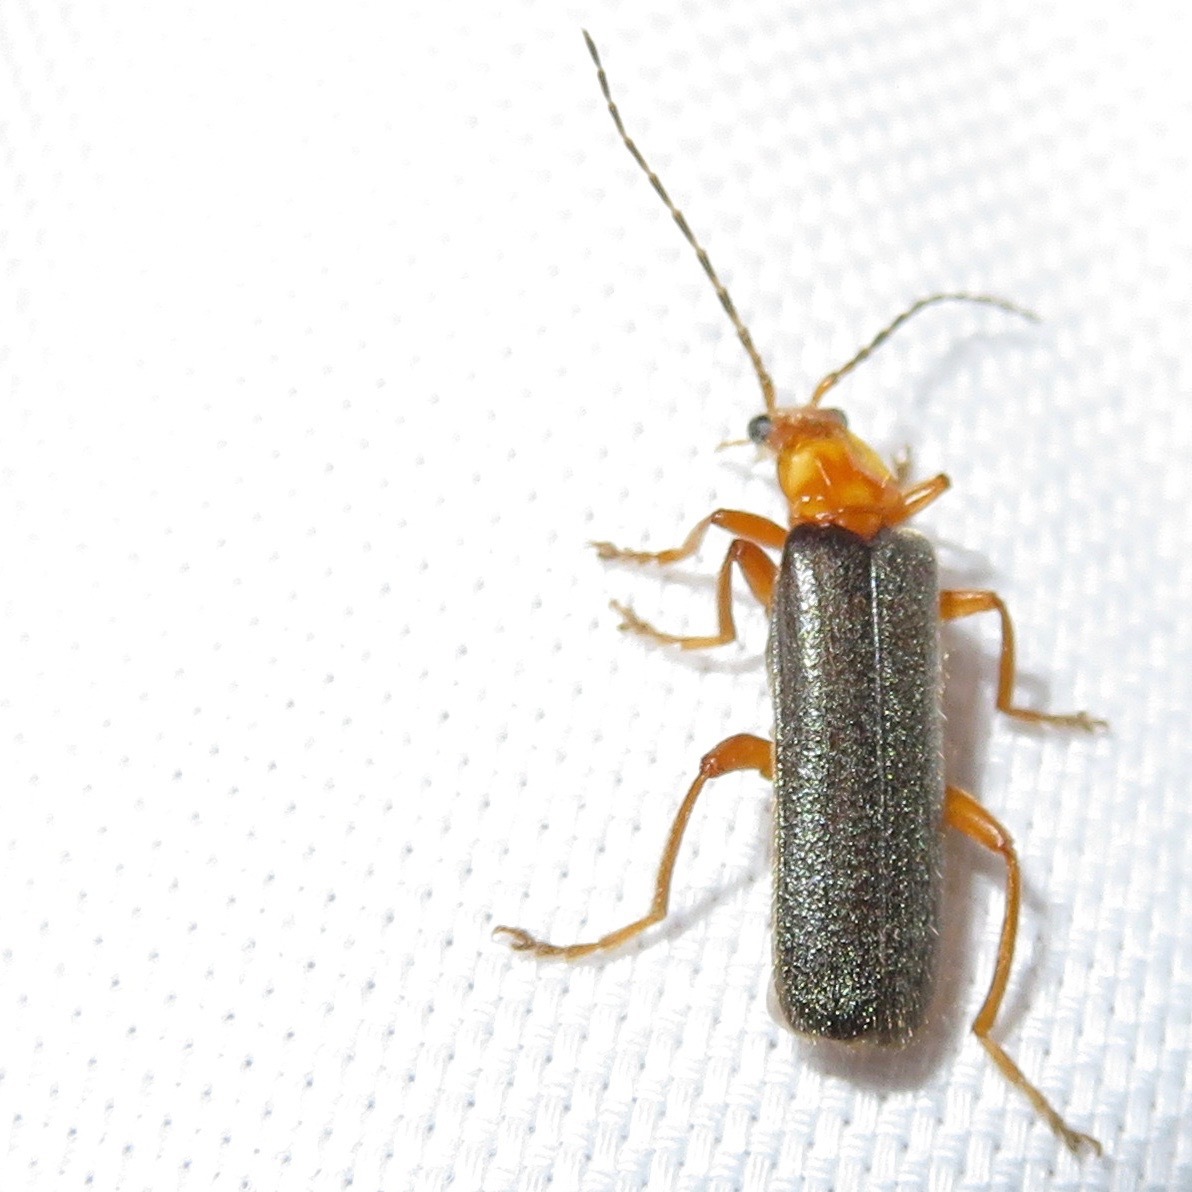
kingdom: Animalia
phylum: Arthropoda
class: Insecta
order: Coleoptera
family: Cantharidae
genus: Cultellunguis
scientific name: Cultellunguis perpallens
